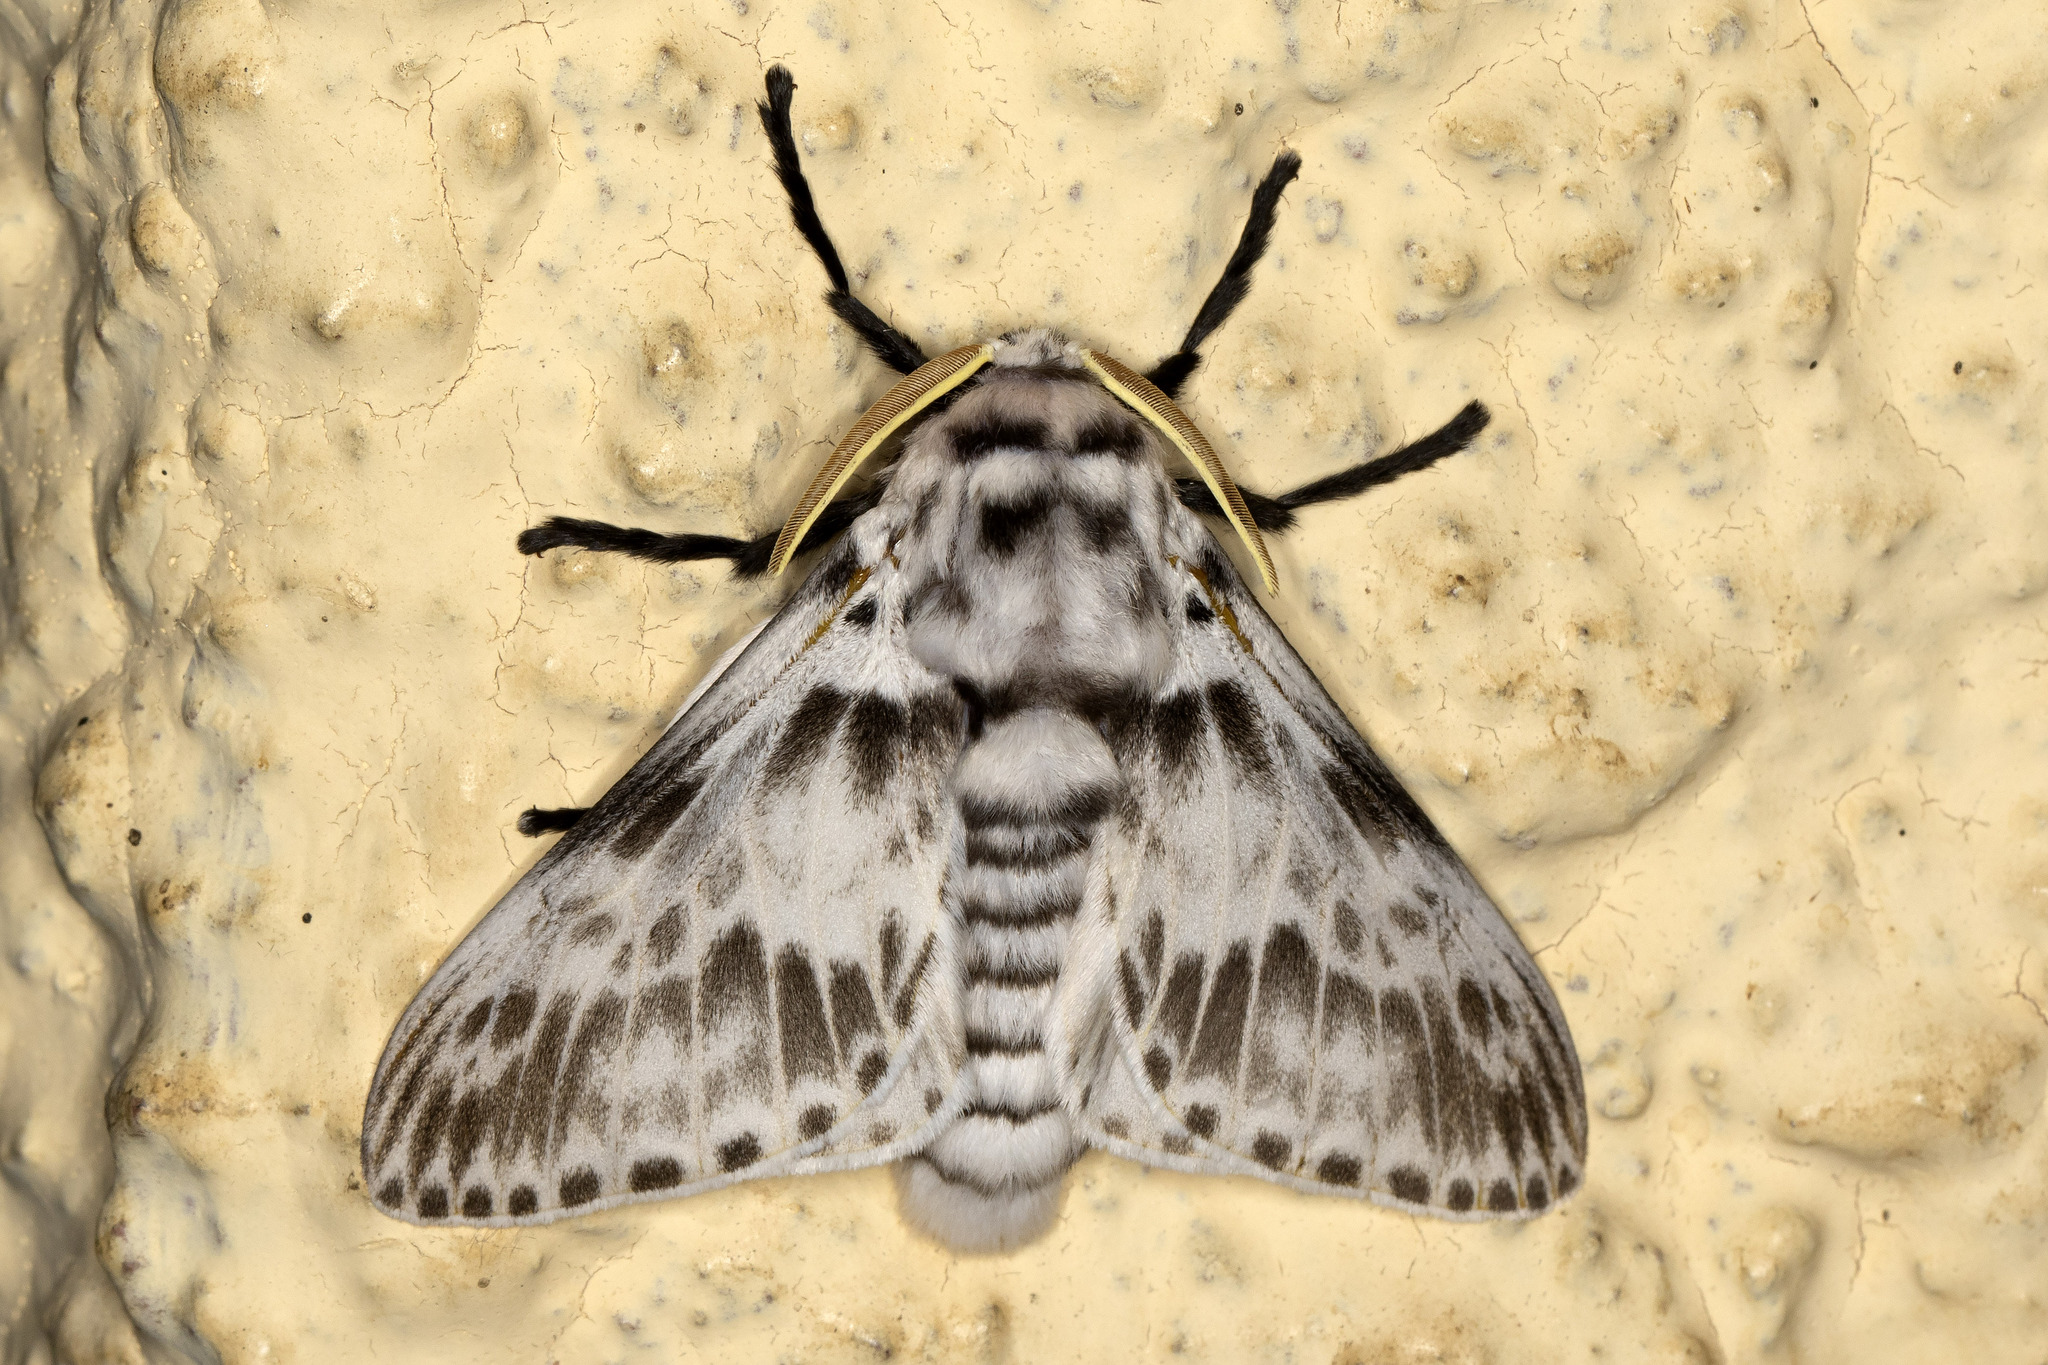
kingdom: Animalia
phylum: Arthropoda
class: Insecta
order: Lepidoptera
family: Megalopygidae
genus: Podalia
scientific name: Podalia albescens
